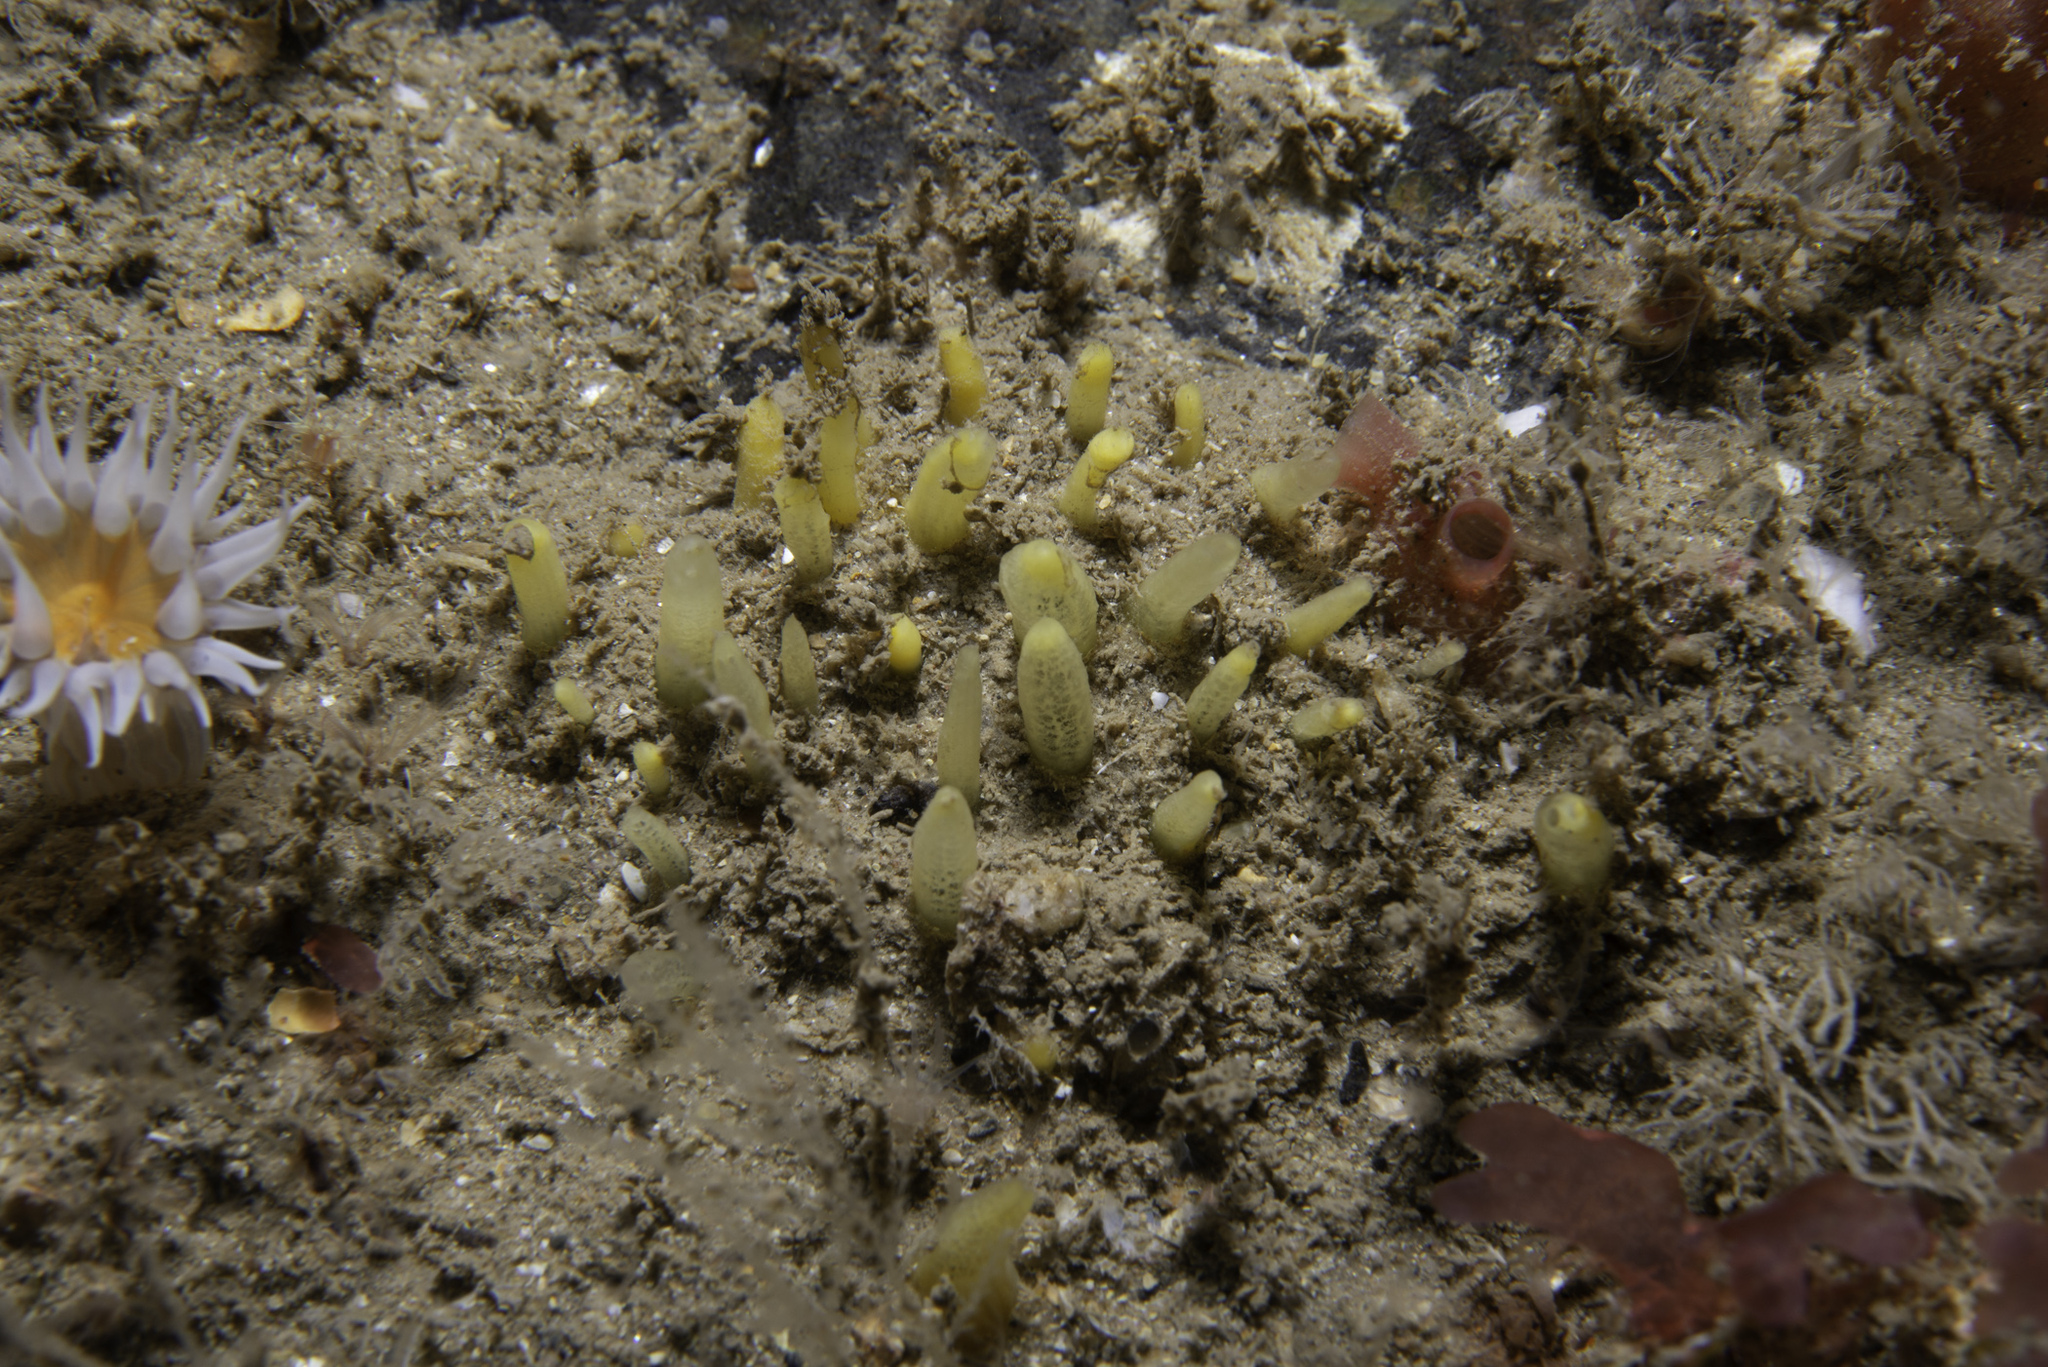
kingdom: Animalia
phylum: Porifera
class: Demospongiae
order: Polymastiida
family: Polymastiidae
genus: Polymastia
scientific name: Polymastia penicillus
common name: Chimney sponge
